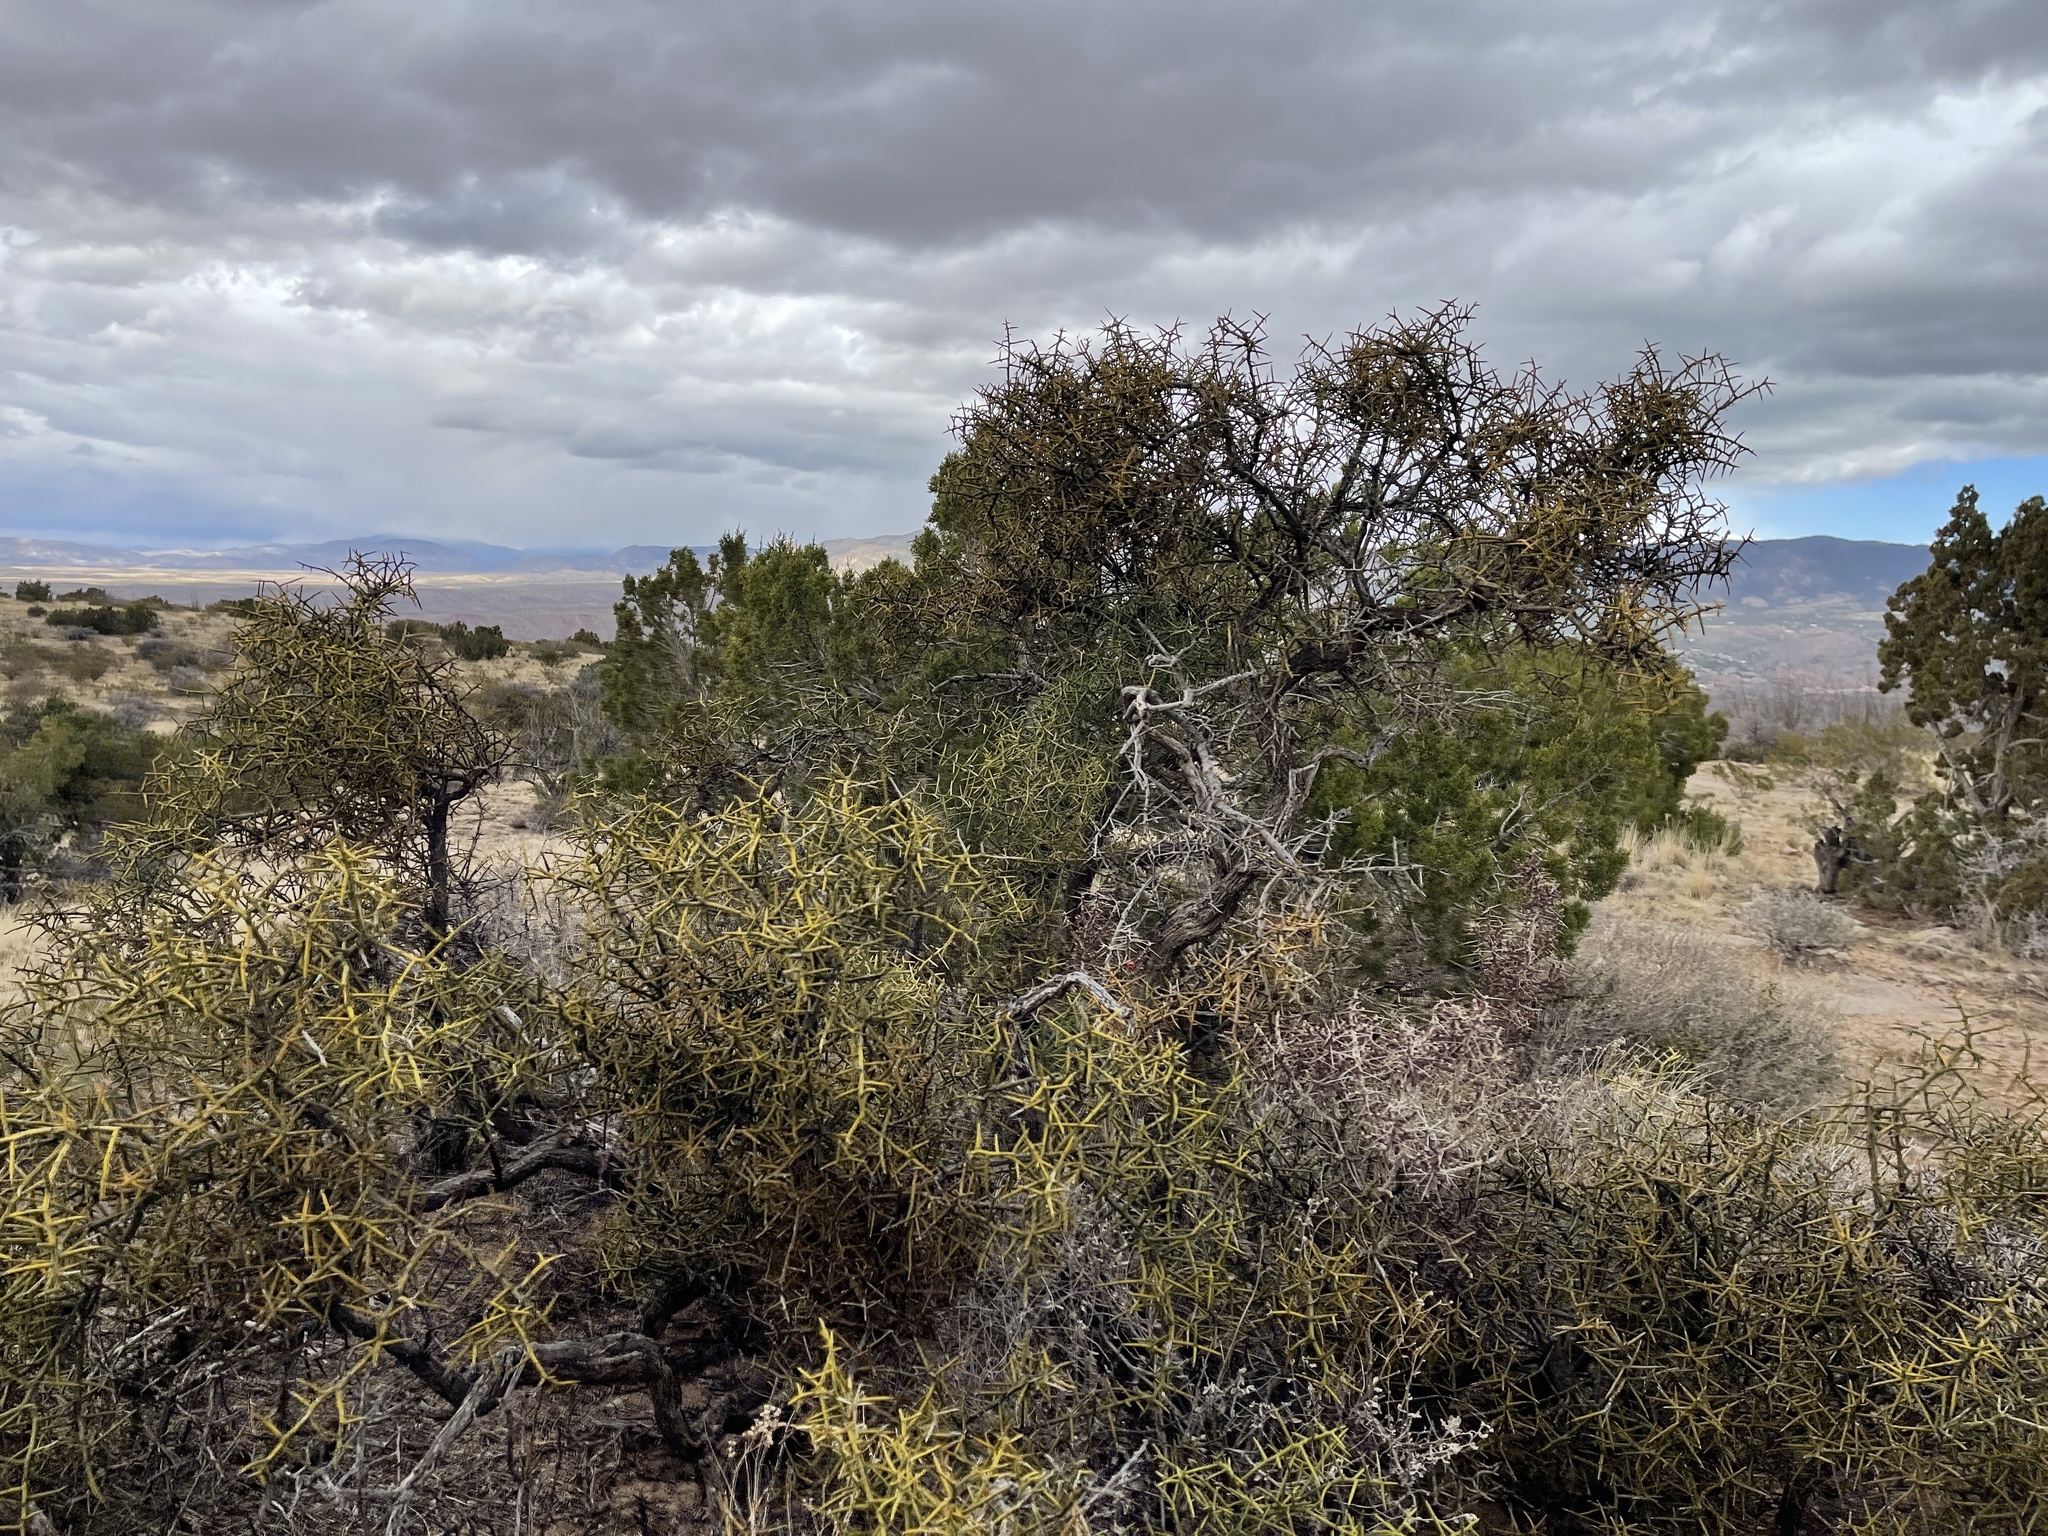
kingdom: Plantae
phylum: Tracheophyta
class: Magnoliopsida
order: Brassicales
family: Koeberliniaceae
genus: Koeberlinia
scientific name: Koeberlinia spinosa
